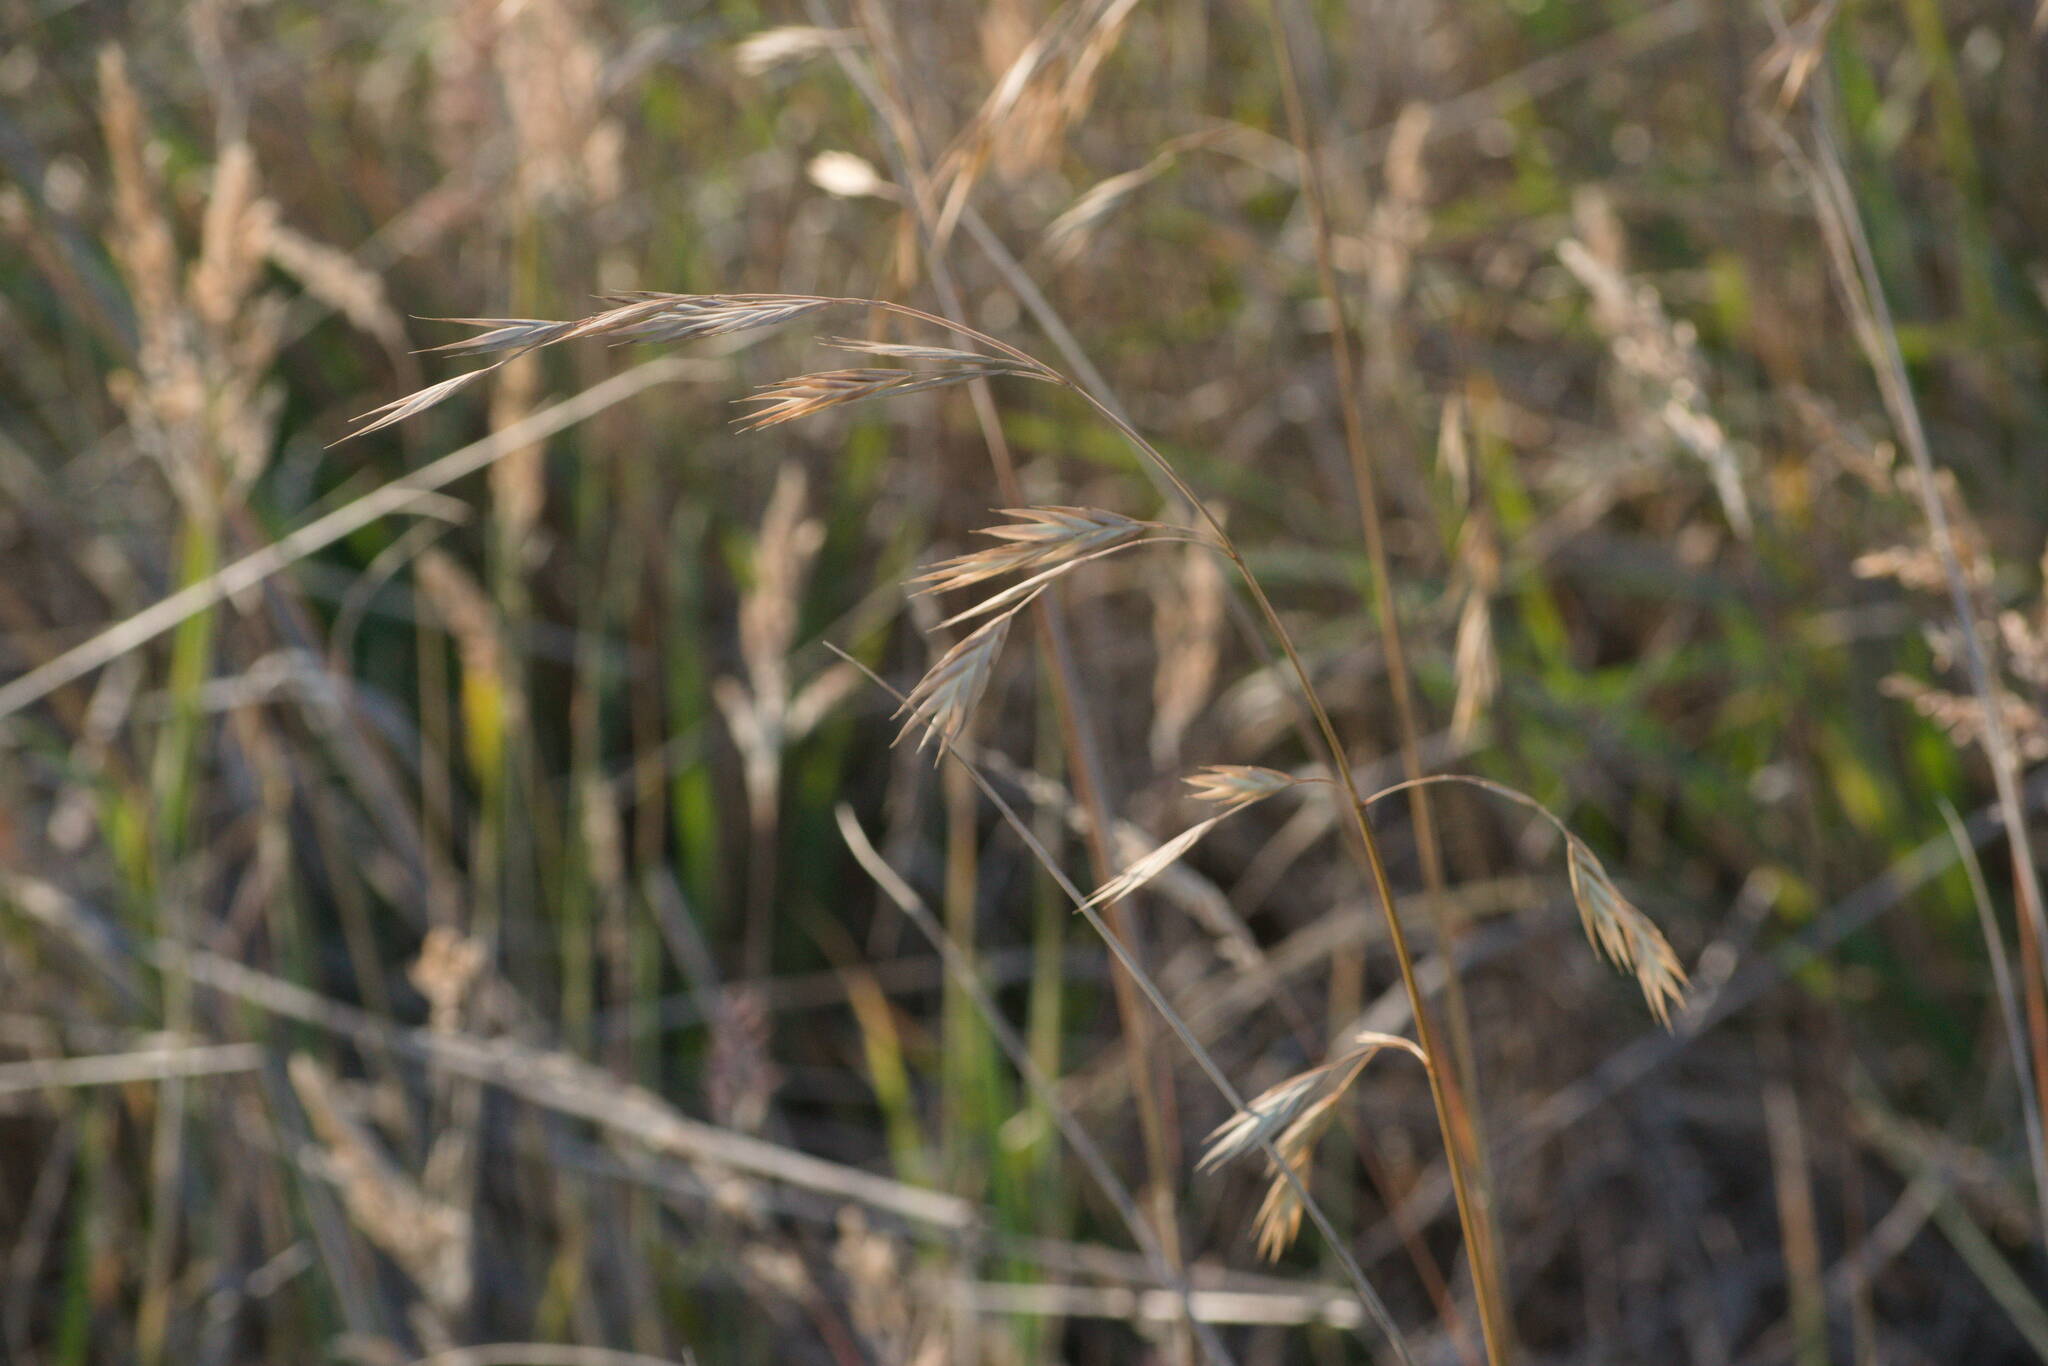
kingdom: Plantae
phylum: Tracheophyta
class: Liliopsida
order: Poales
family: Poaceae
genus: Bromus
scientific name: Bromus catharticus
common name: Rescuegrass
